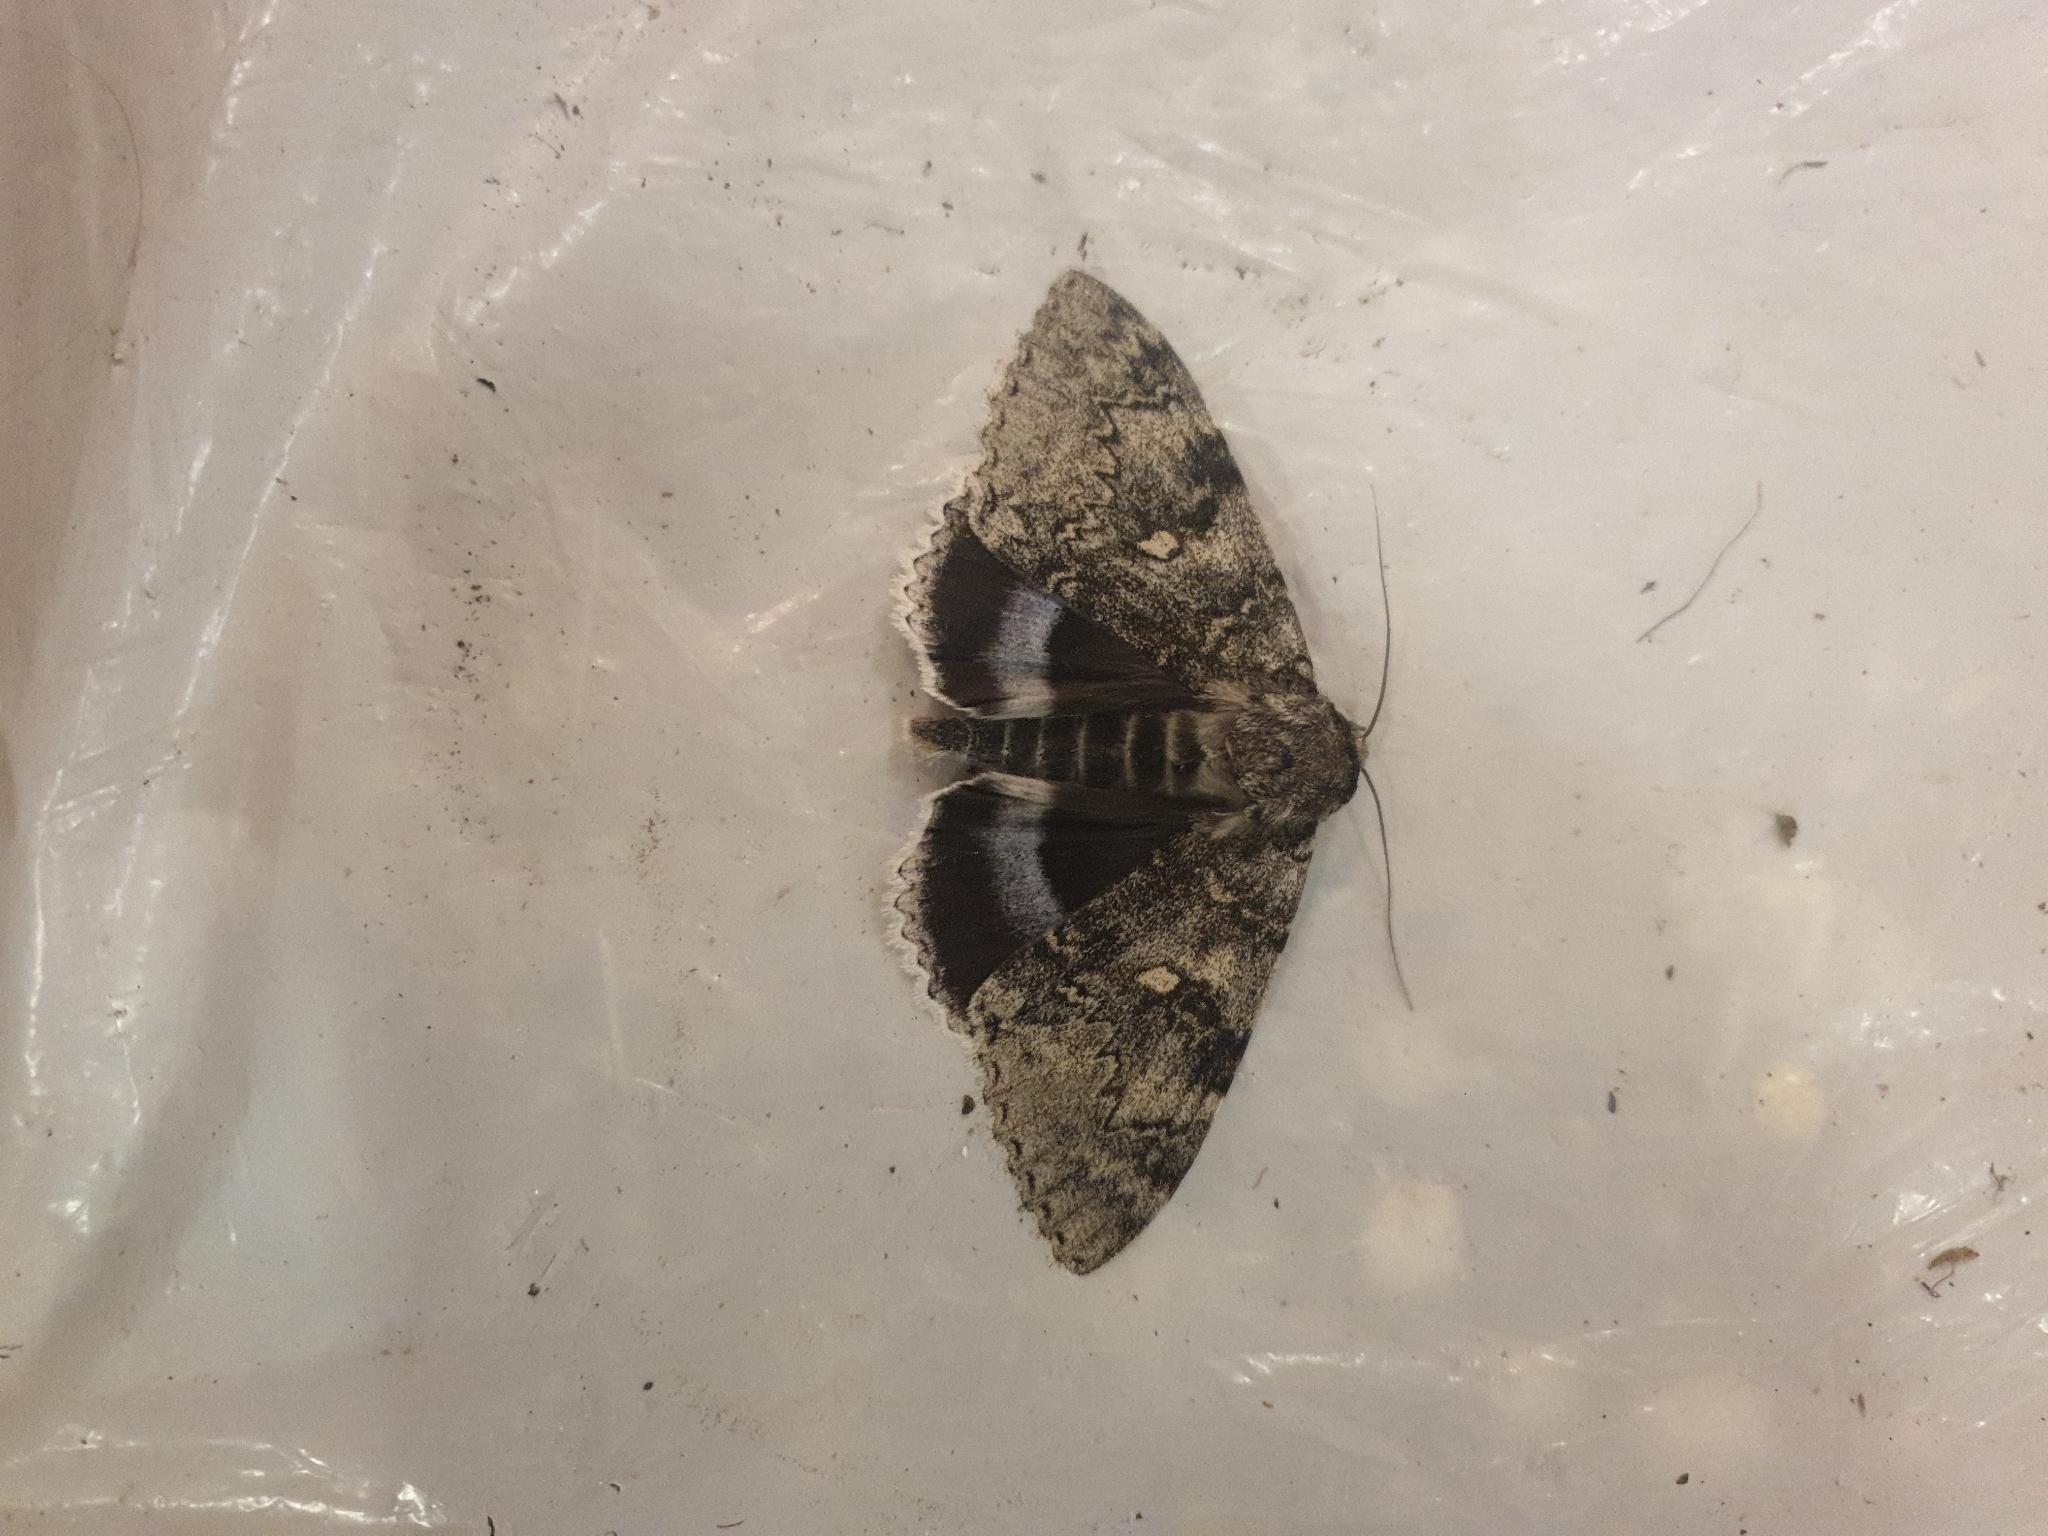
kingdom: Animalia
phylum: Arthropoda
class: Insecta
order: Lepidoptera
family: Erebidae
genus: Catocala
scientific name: Catocala fraxini
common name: Clifden nonpareil
